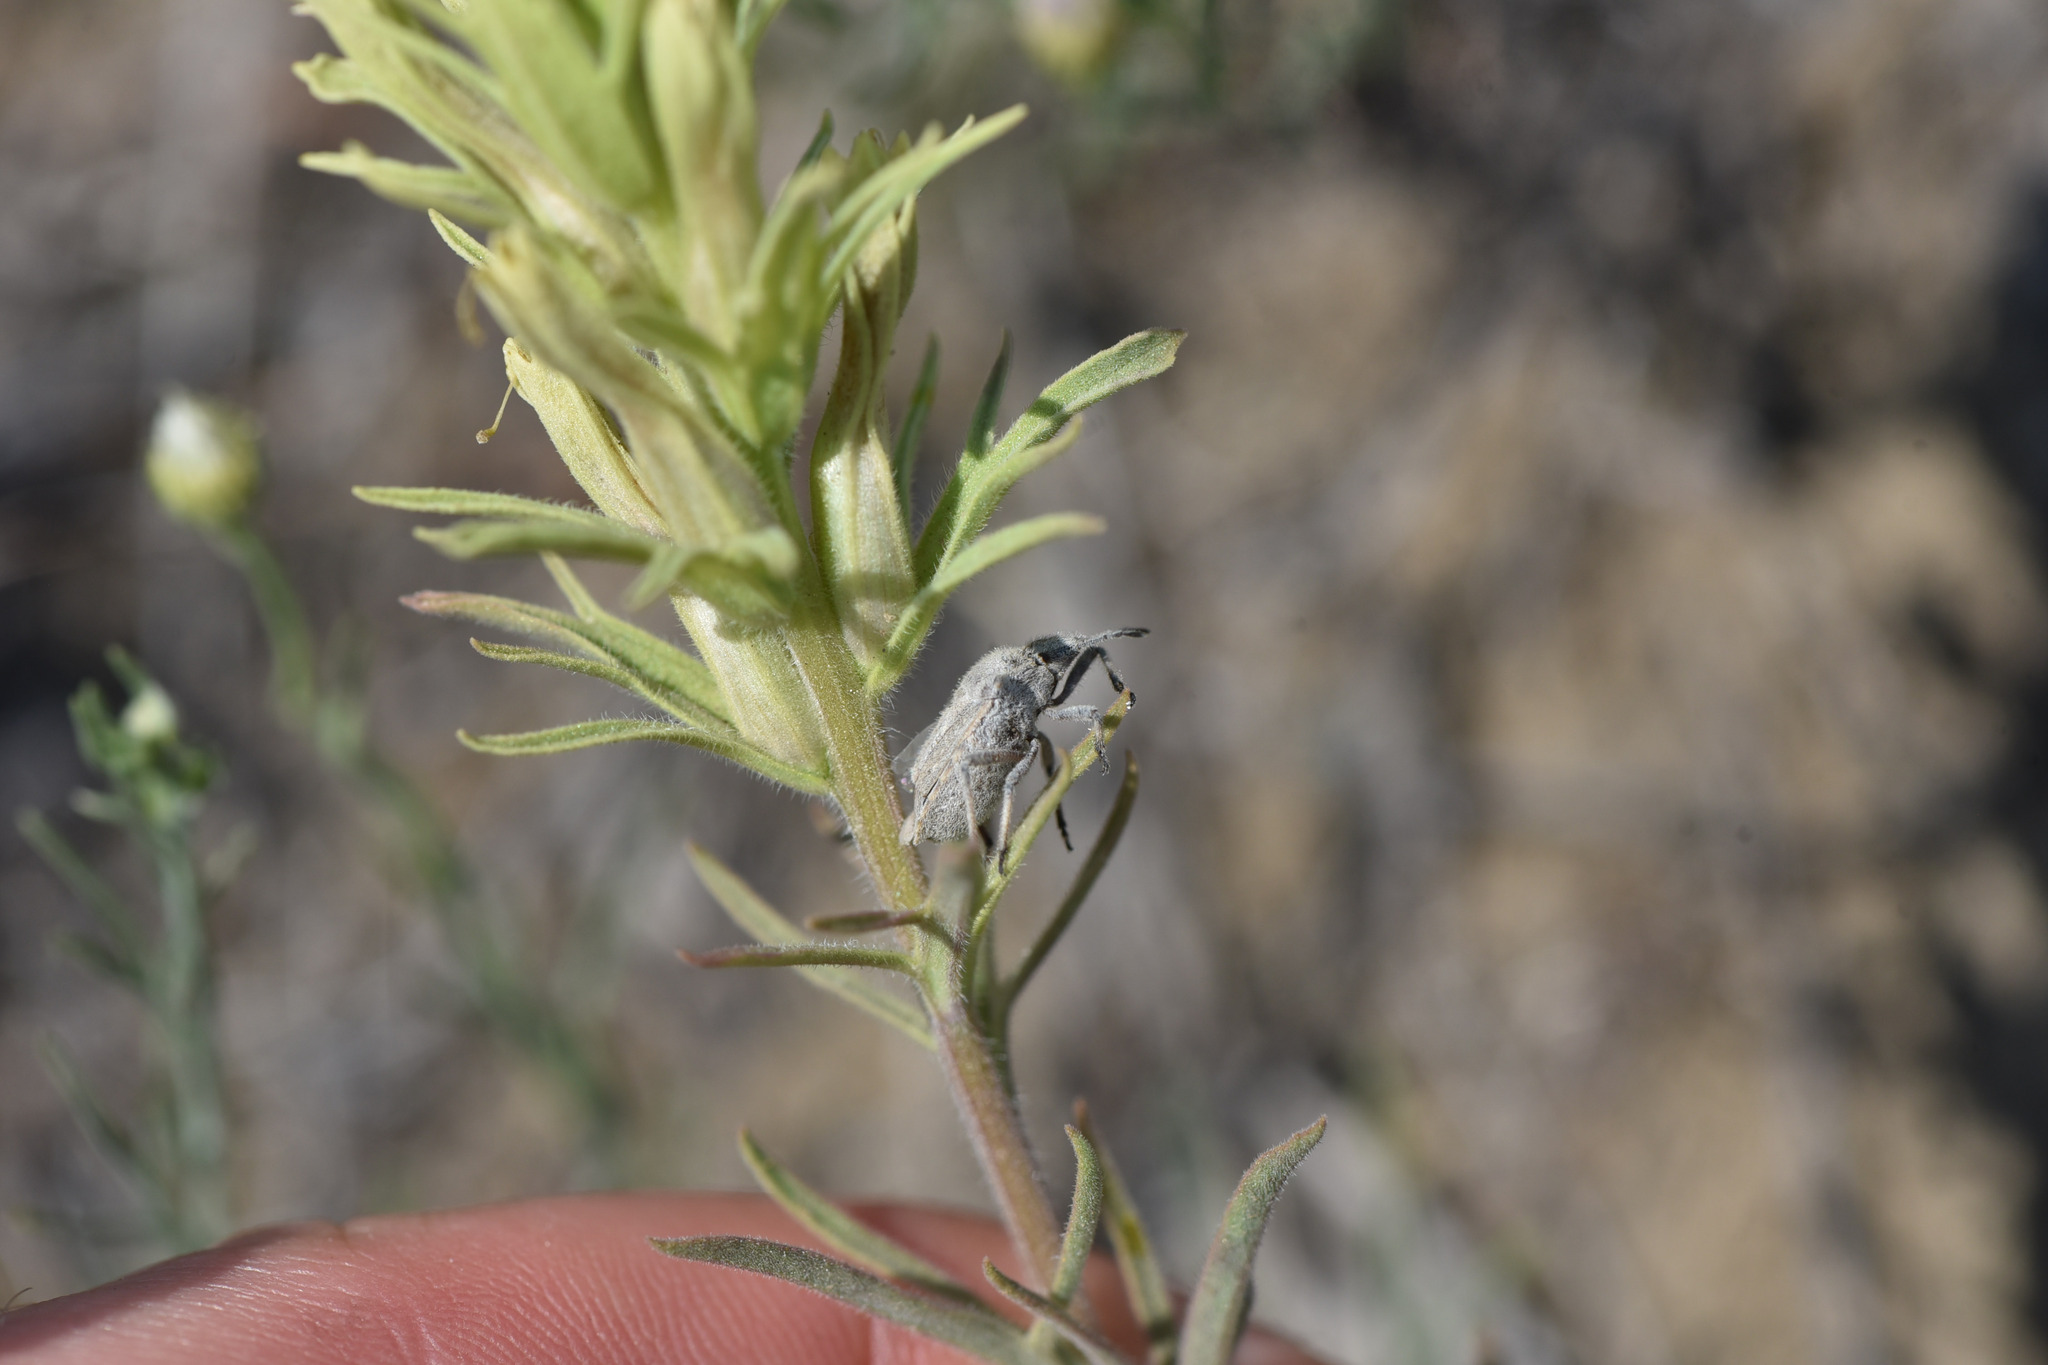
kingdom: Plantae
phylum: Tracheophyta
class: Magnoliopsida
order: Lamiales
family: Orobanchaceae
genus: Castilleja
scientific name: Castilleja thompsonii
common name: Thompson's paintbrush
